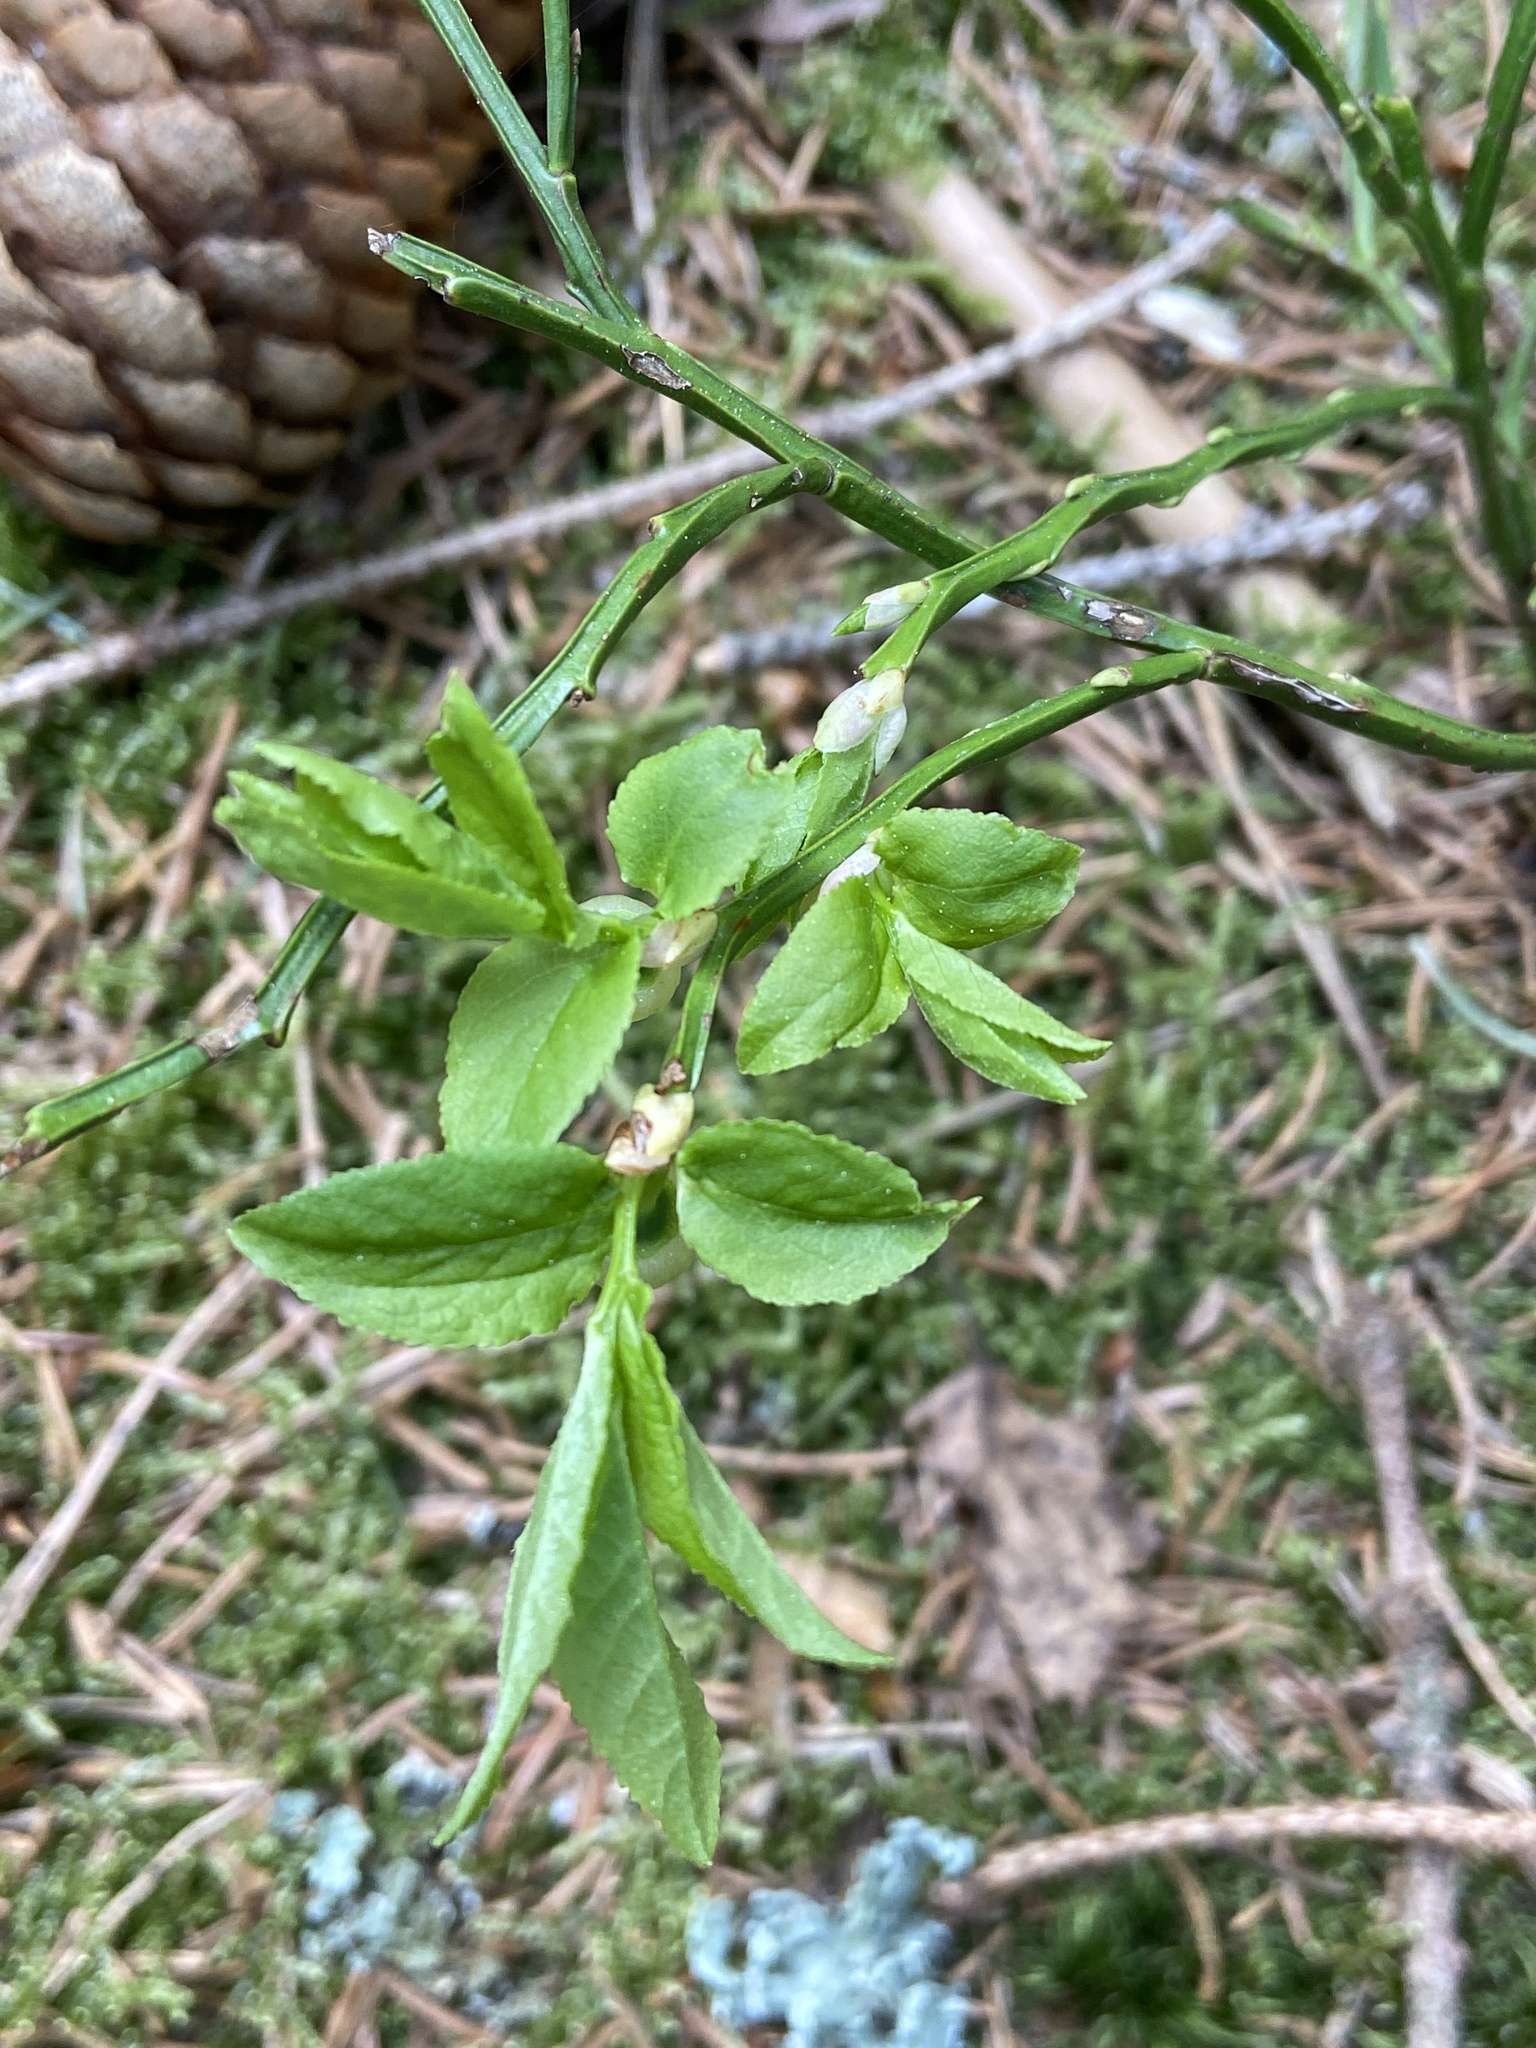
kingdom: Plantae
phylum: Tracheophyta
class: Magnoliopsida
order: Ericales
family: Ericaceae
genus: Vaccinium
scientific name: Vaccinium myrtillus
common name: Bilberry
